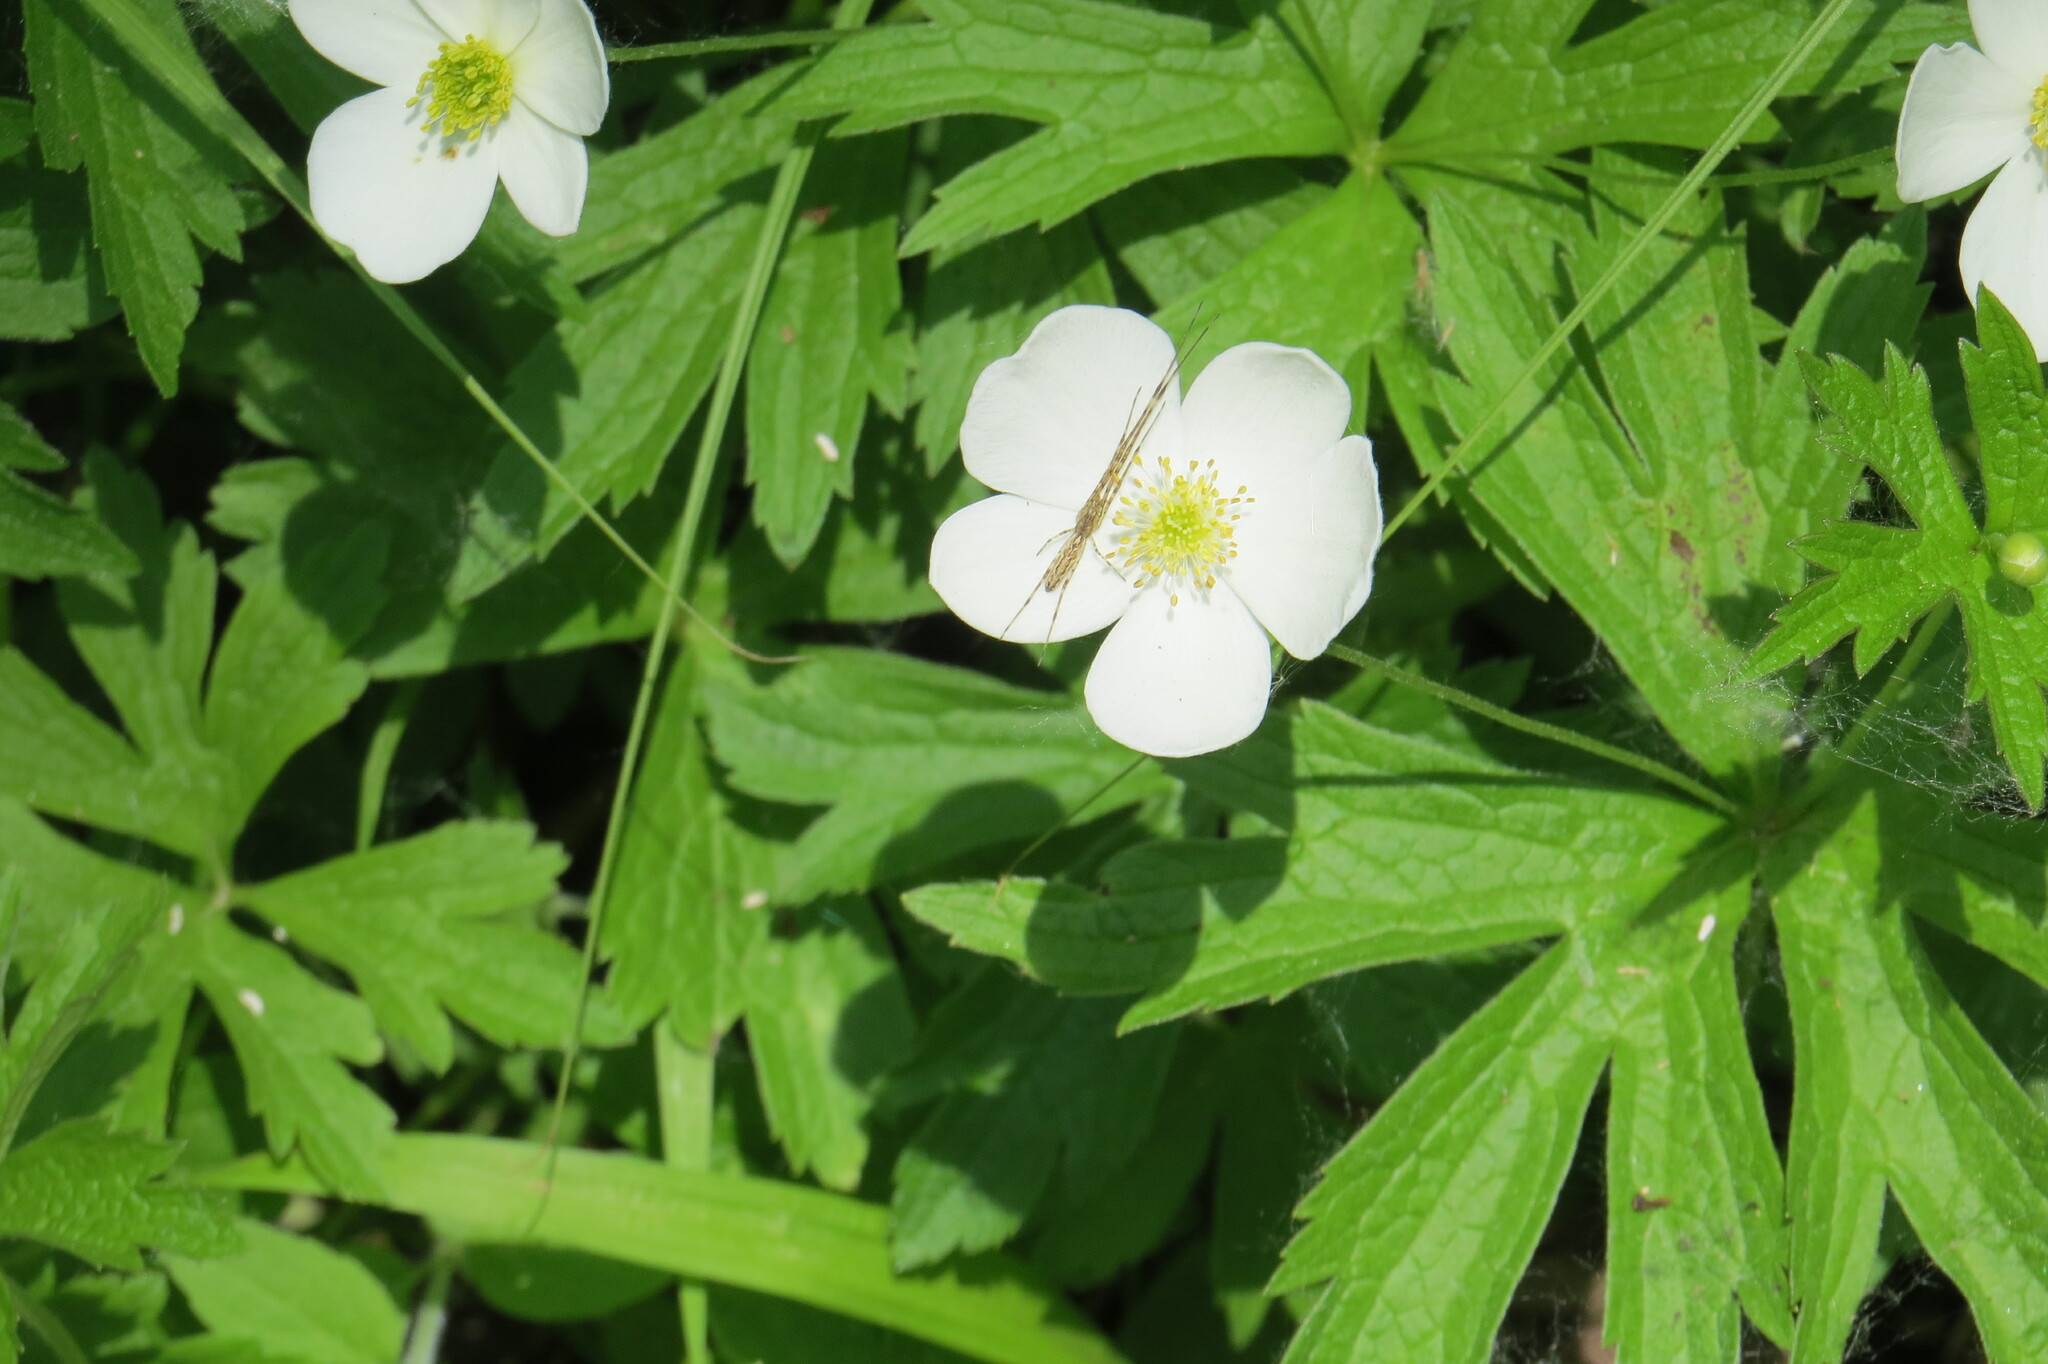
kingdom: Plantae
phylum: Tracheophyta
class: Magnoliopsida
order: Ranunculales
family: Ranunculaceae
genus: Anemonastrum
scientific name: Anemonastrum canadense
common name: Canada anemone
